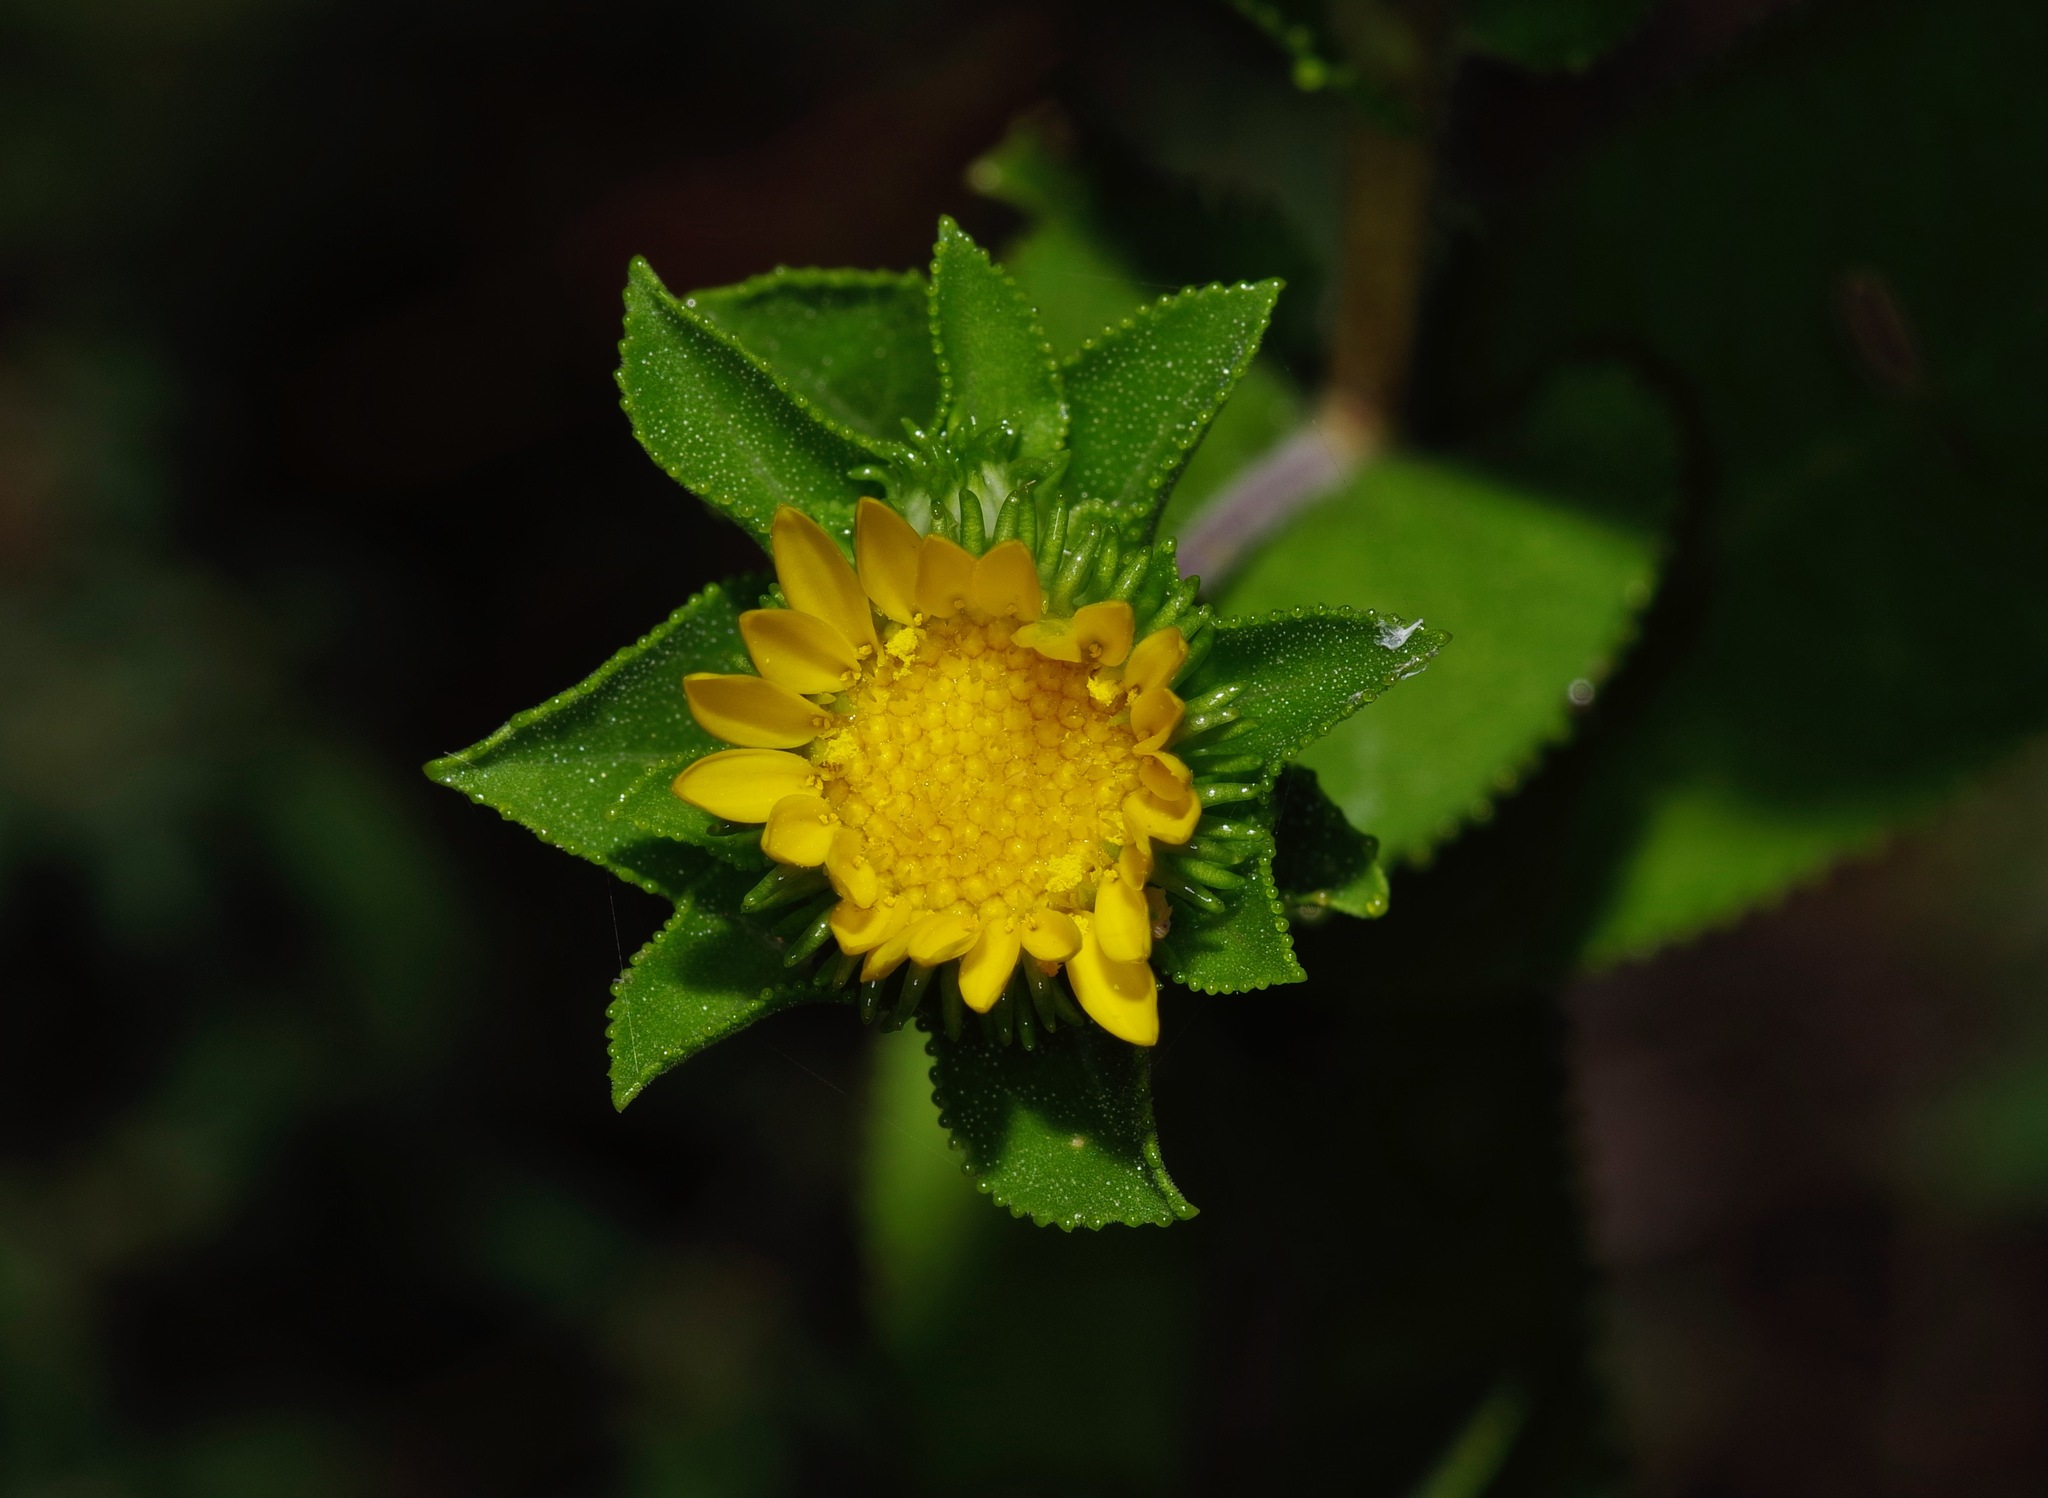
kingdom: Plantae
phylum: Tracheophyta
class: Magnoliopsida
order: Asterales
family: Asteraceae
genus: Grindelia
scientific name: Grindelia adenodonta
